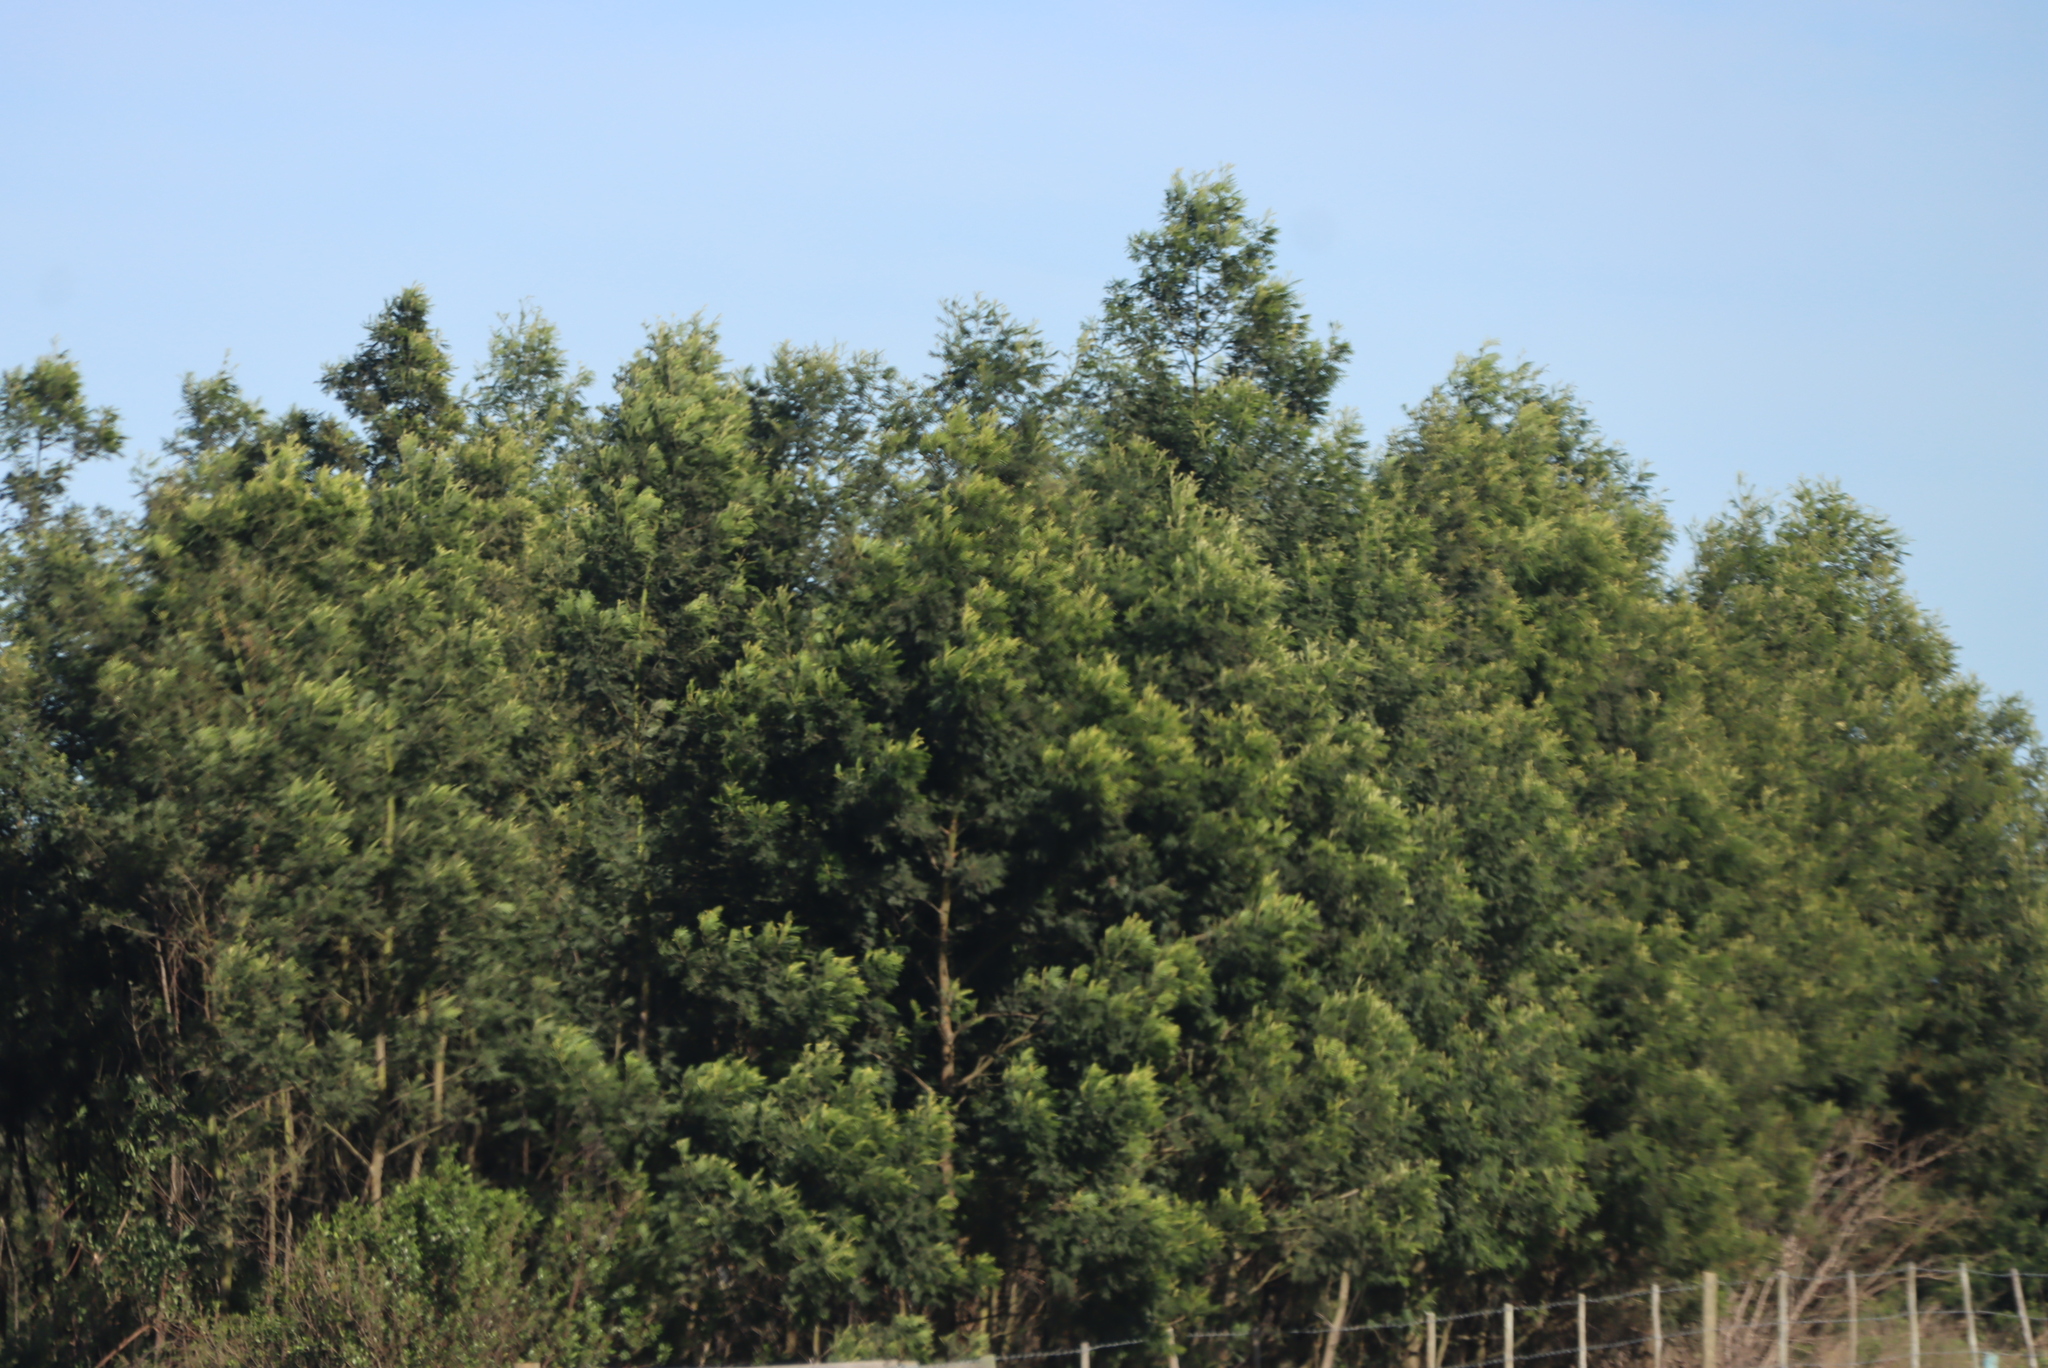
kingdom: Plantae
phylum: Tracheophyta
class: Magnoliopsida
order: Fabales
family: Fabaceae
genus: Acacia
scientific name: Acacia mearnsii
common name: Black wattle
